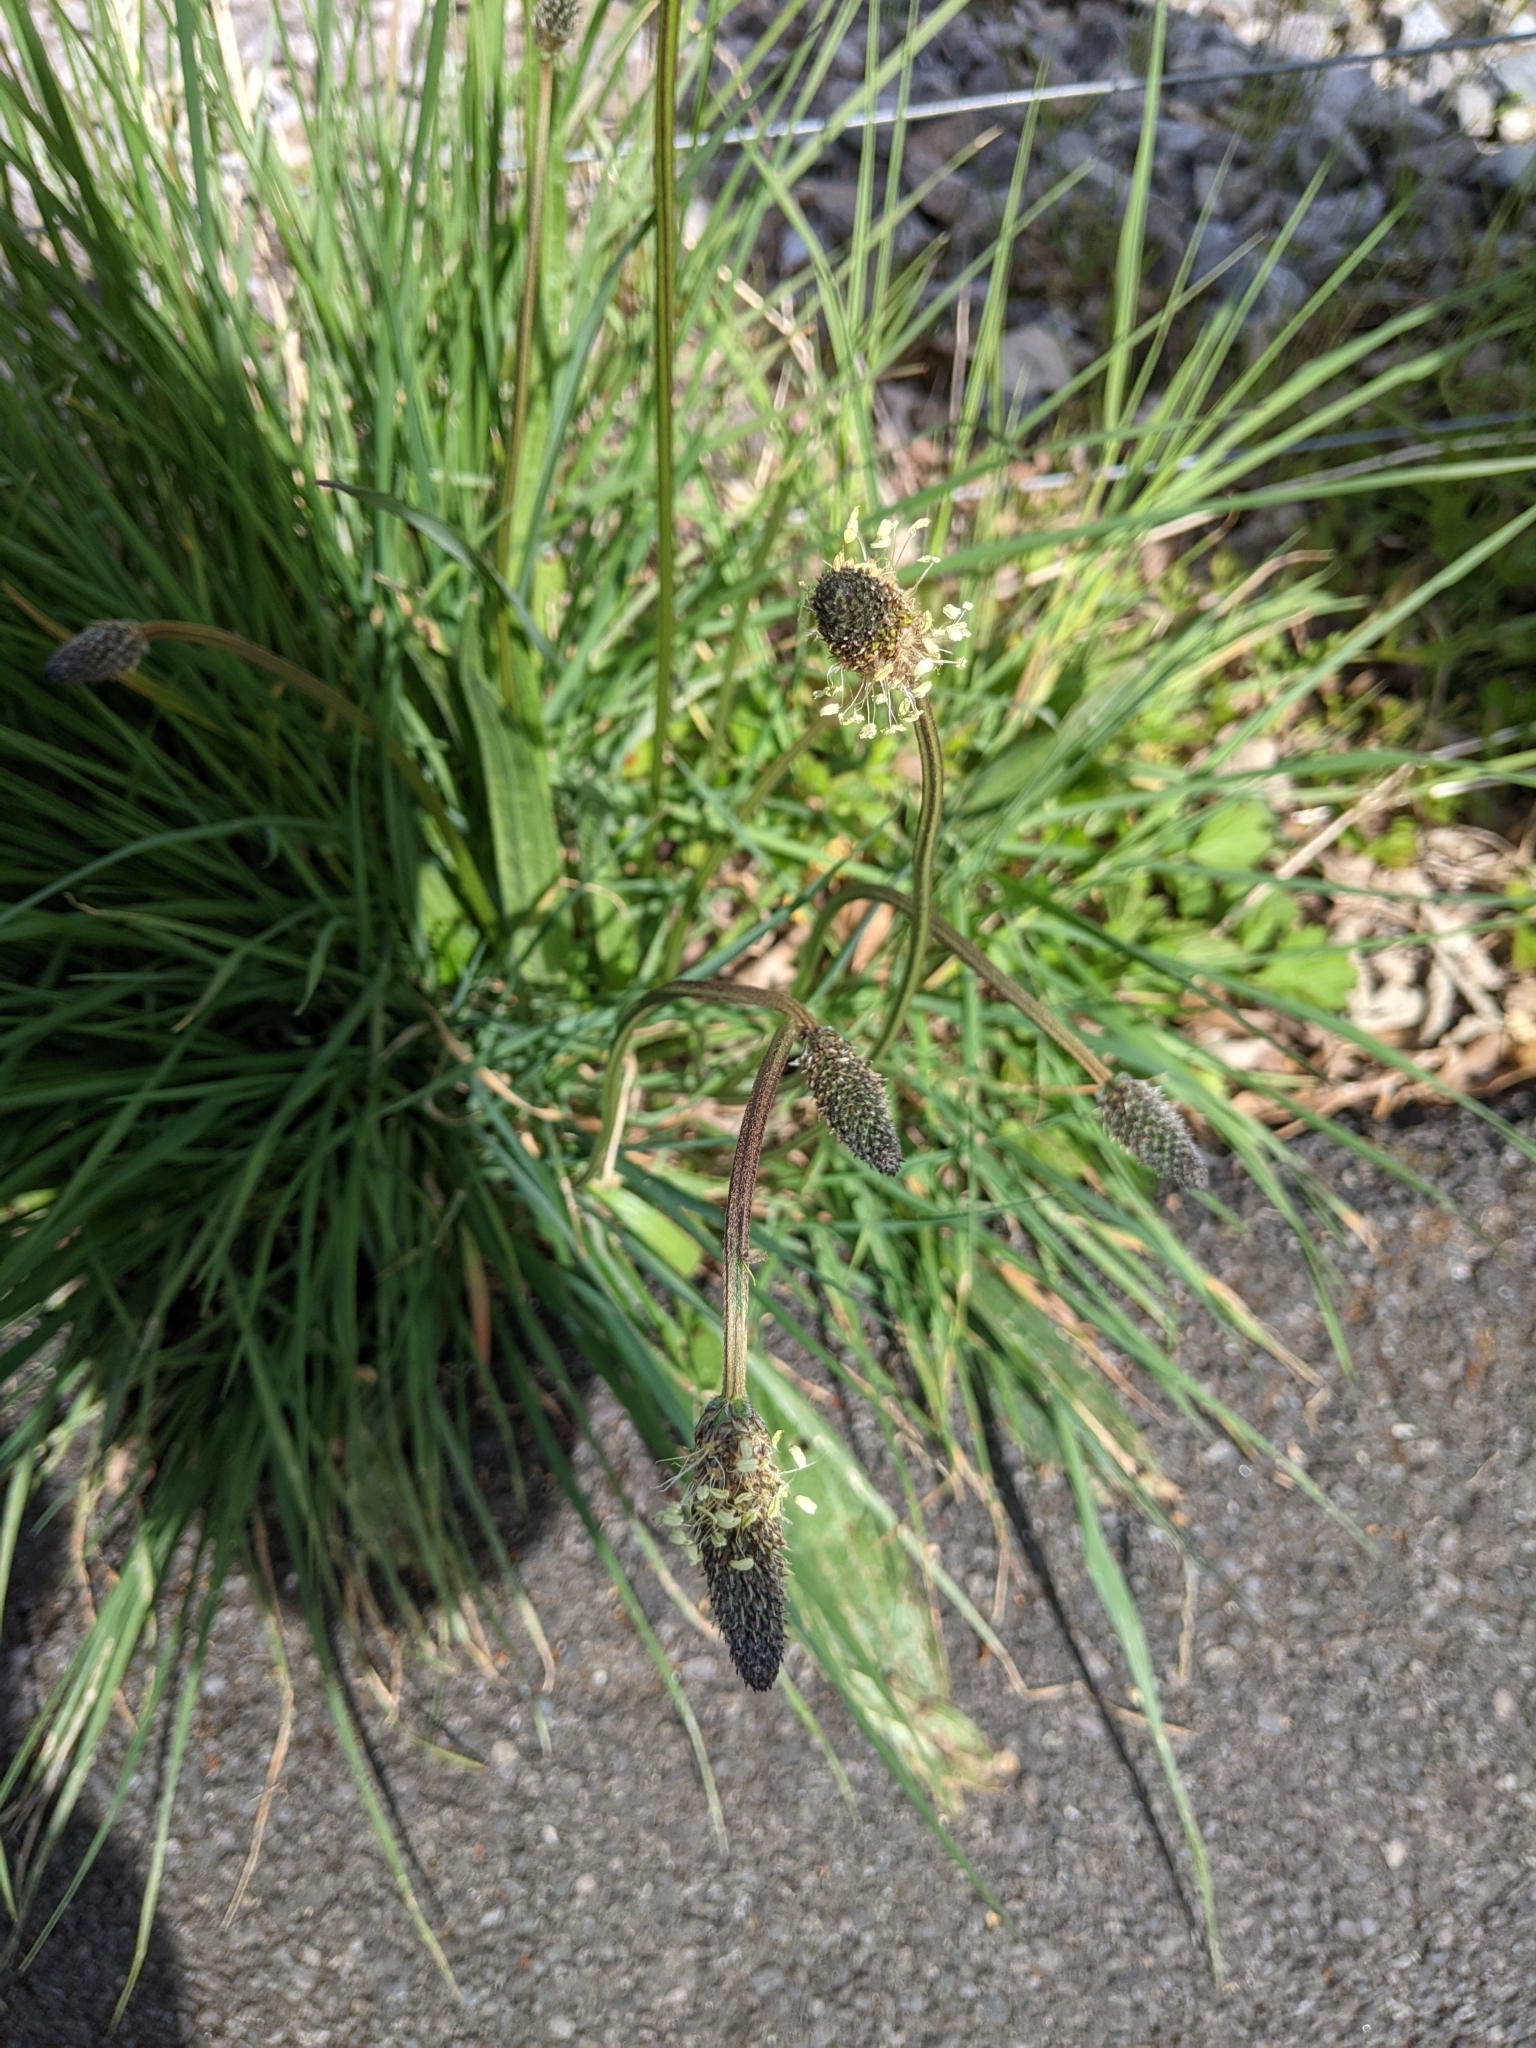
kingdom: Plantae
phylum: Tracheophyta
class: Magnoliopsida
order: Lamiales
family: Plantaginaceae
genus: Plantago
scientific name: Plantago lanceolata
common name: Ribwort plantain
